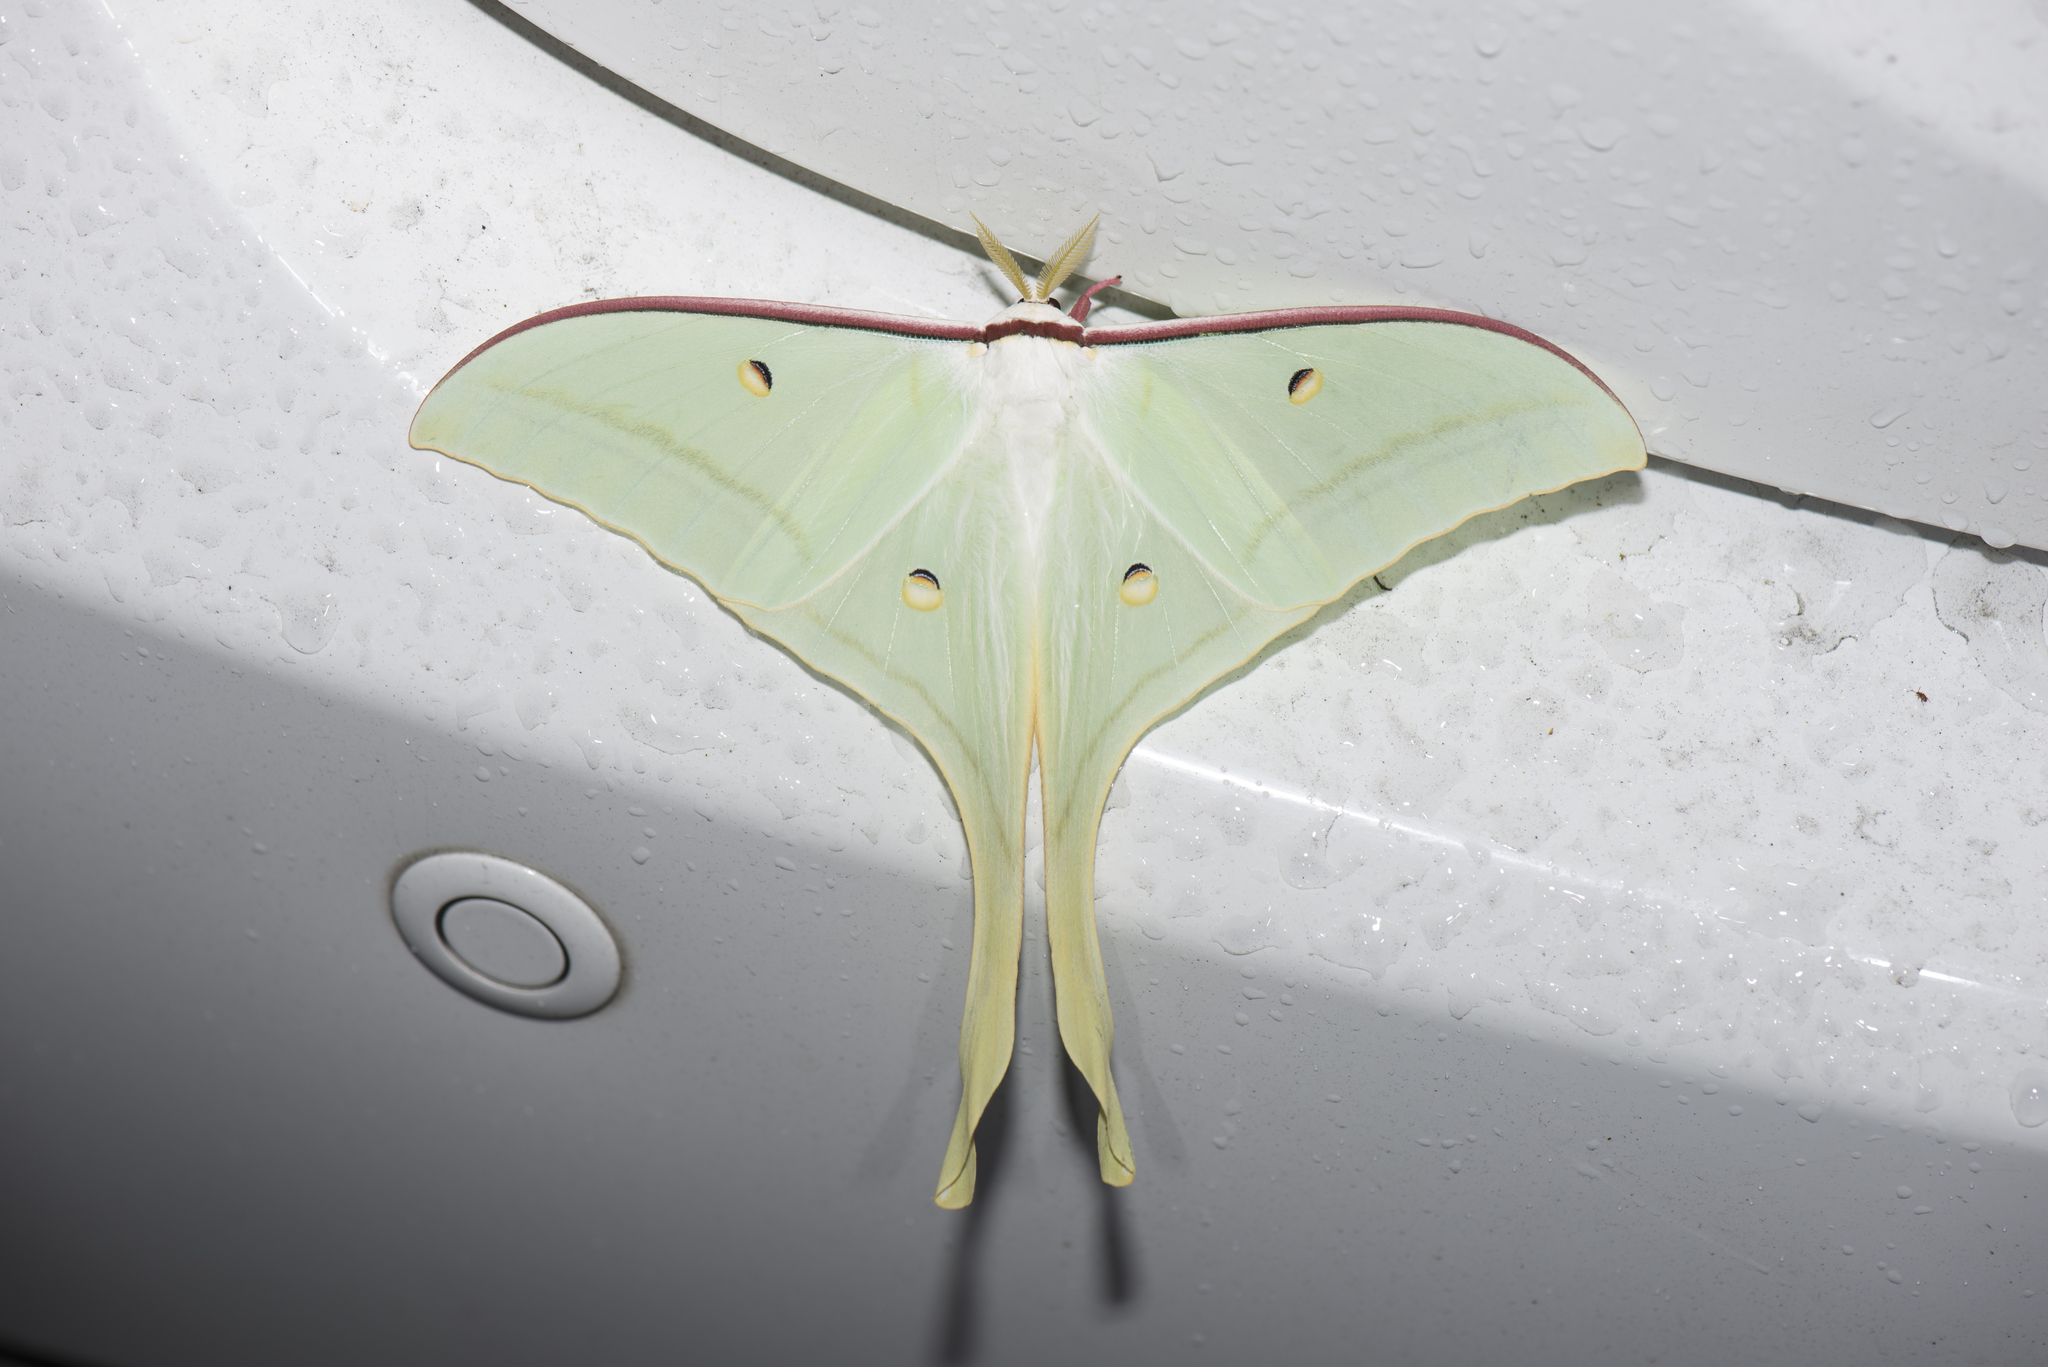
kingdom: Animalia
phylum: Arthropoda
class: Insecta
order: Lepidoptera
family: Saturniidae
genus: Actias
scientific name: Actias ningpoana
